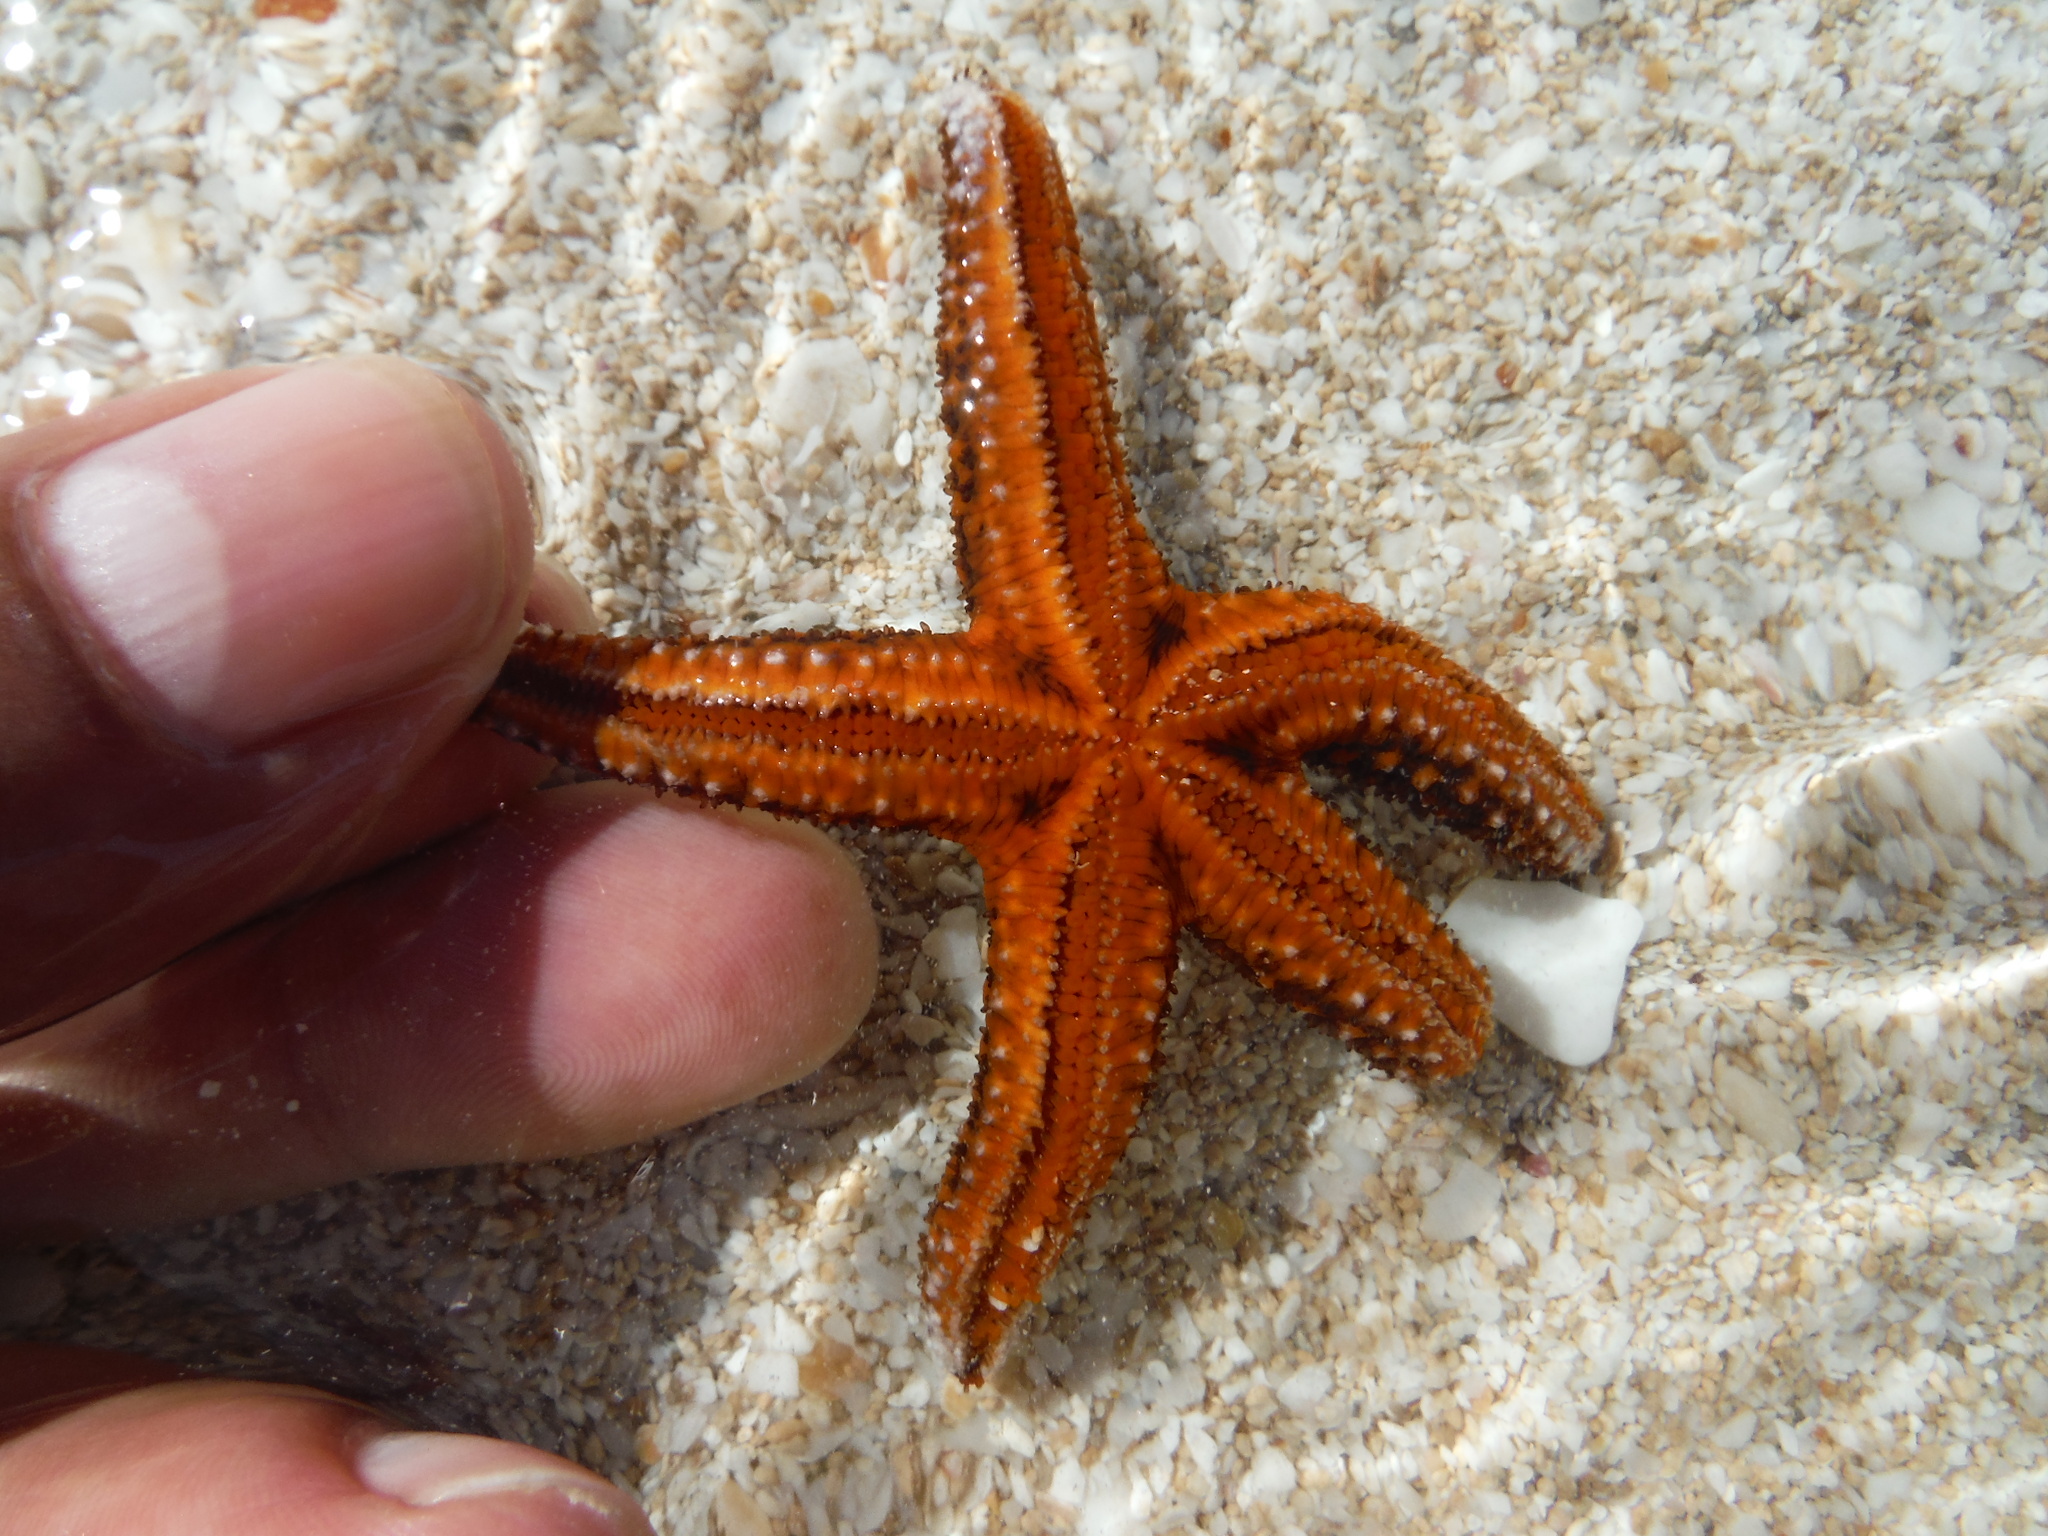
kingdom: Animalia
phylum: Echinodermata
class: Asteroidea
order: Spinulosida
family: Echinasteridae
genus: Echinaster
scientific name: Echinaster sentus
